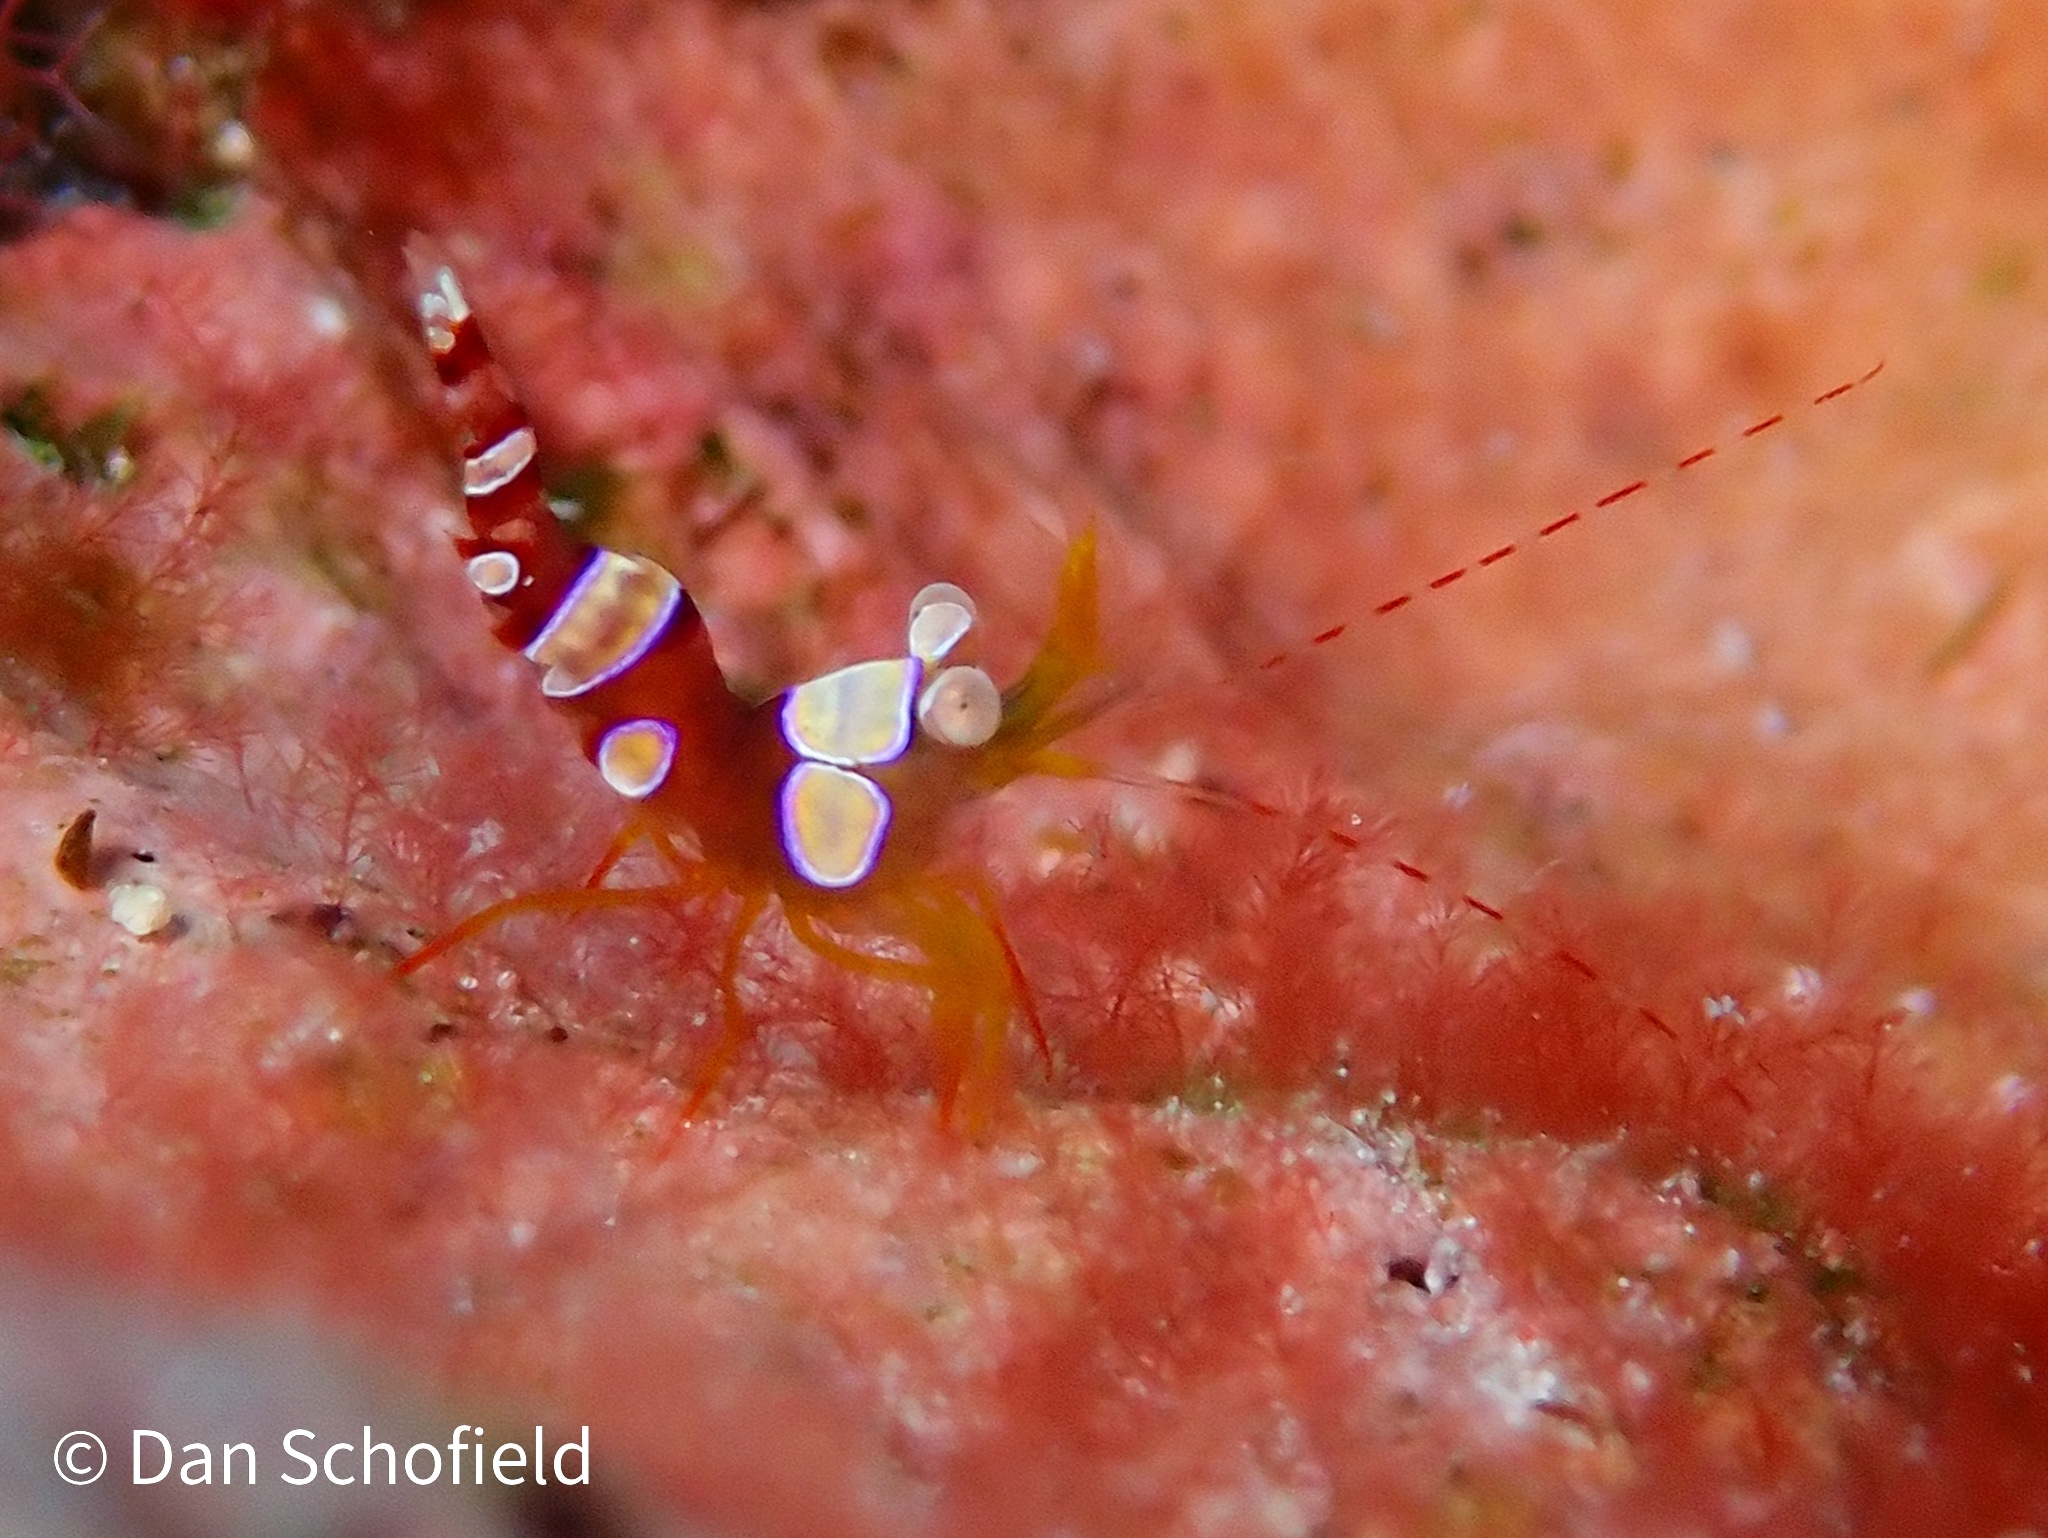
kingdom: Animalia
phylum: Arthropoda
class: Malacostraca
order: Decapoda
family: Thoridae
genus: Thor
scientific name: Thor dicaprio
